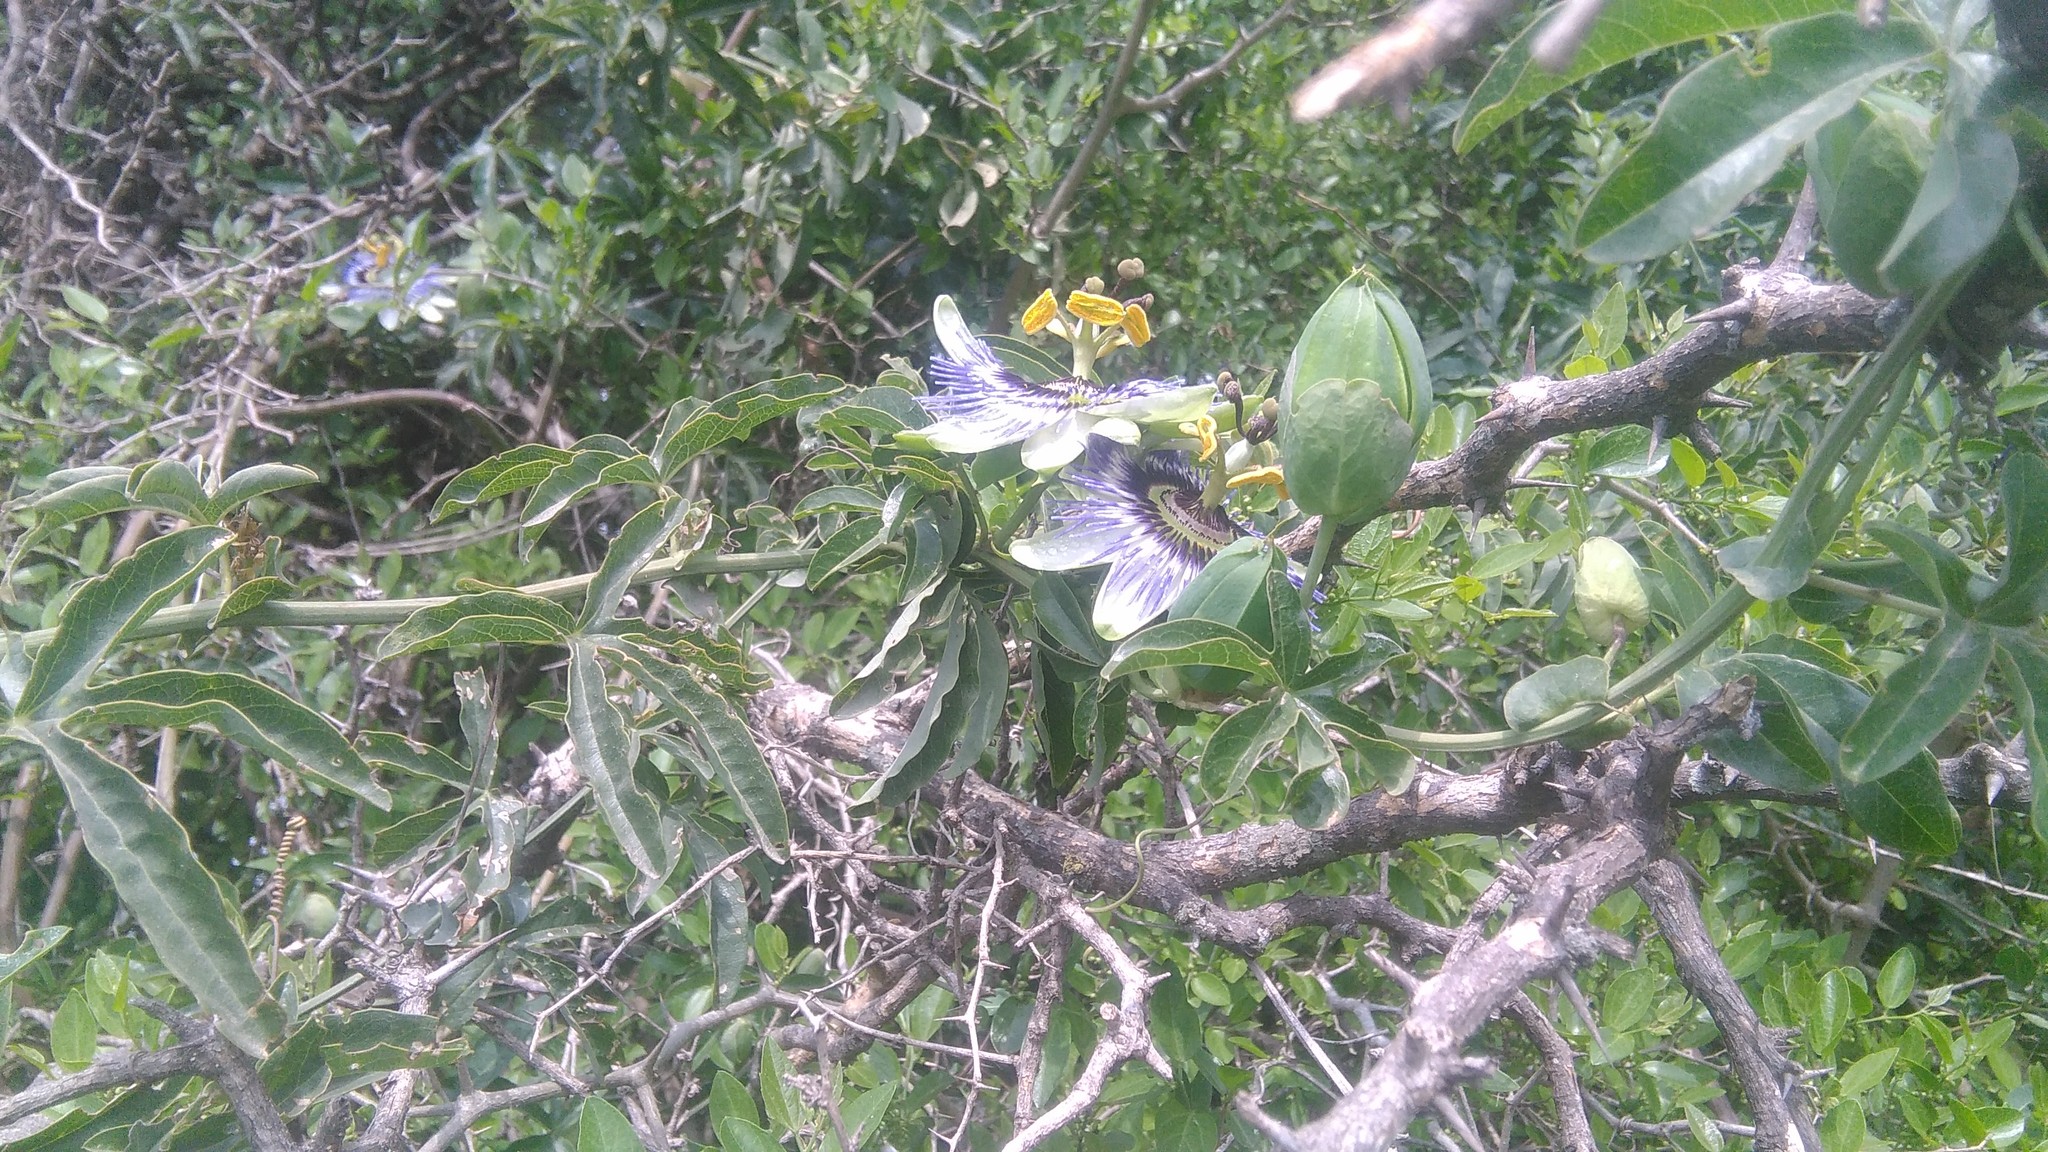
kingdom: Plantae
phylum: Tracheophyta
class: Magnoliopsida
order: Malpighiales
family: Passifloraceae
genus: Passiflora
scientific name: Passiflora caerulea
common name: Blue passionflower
